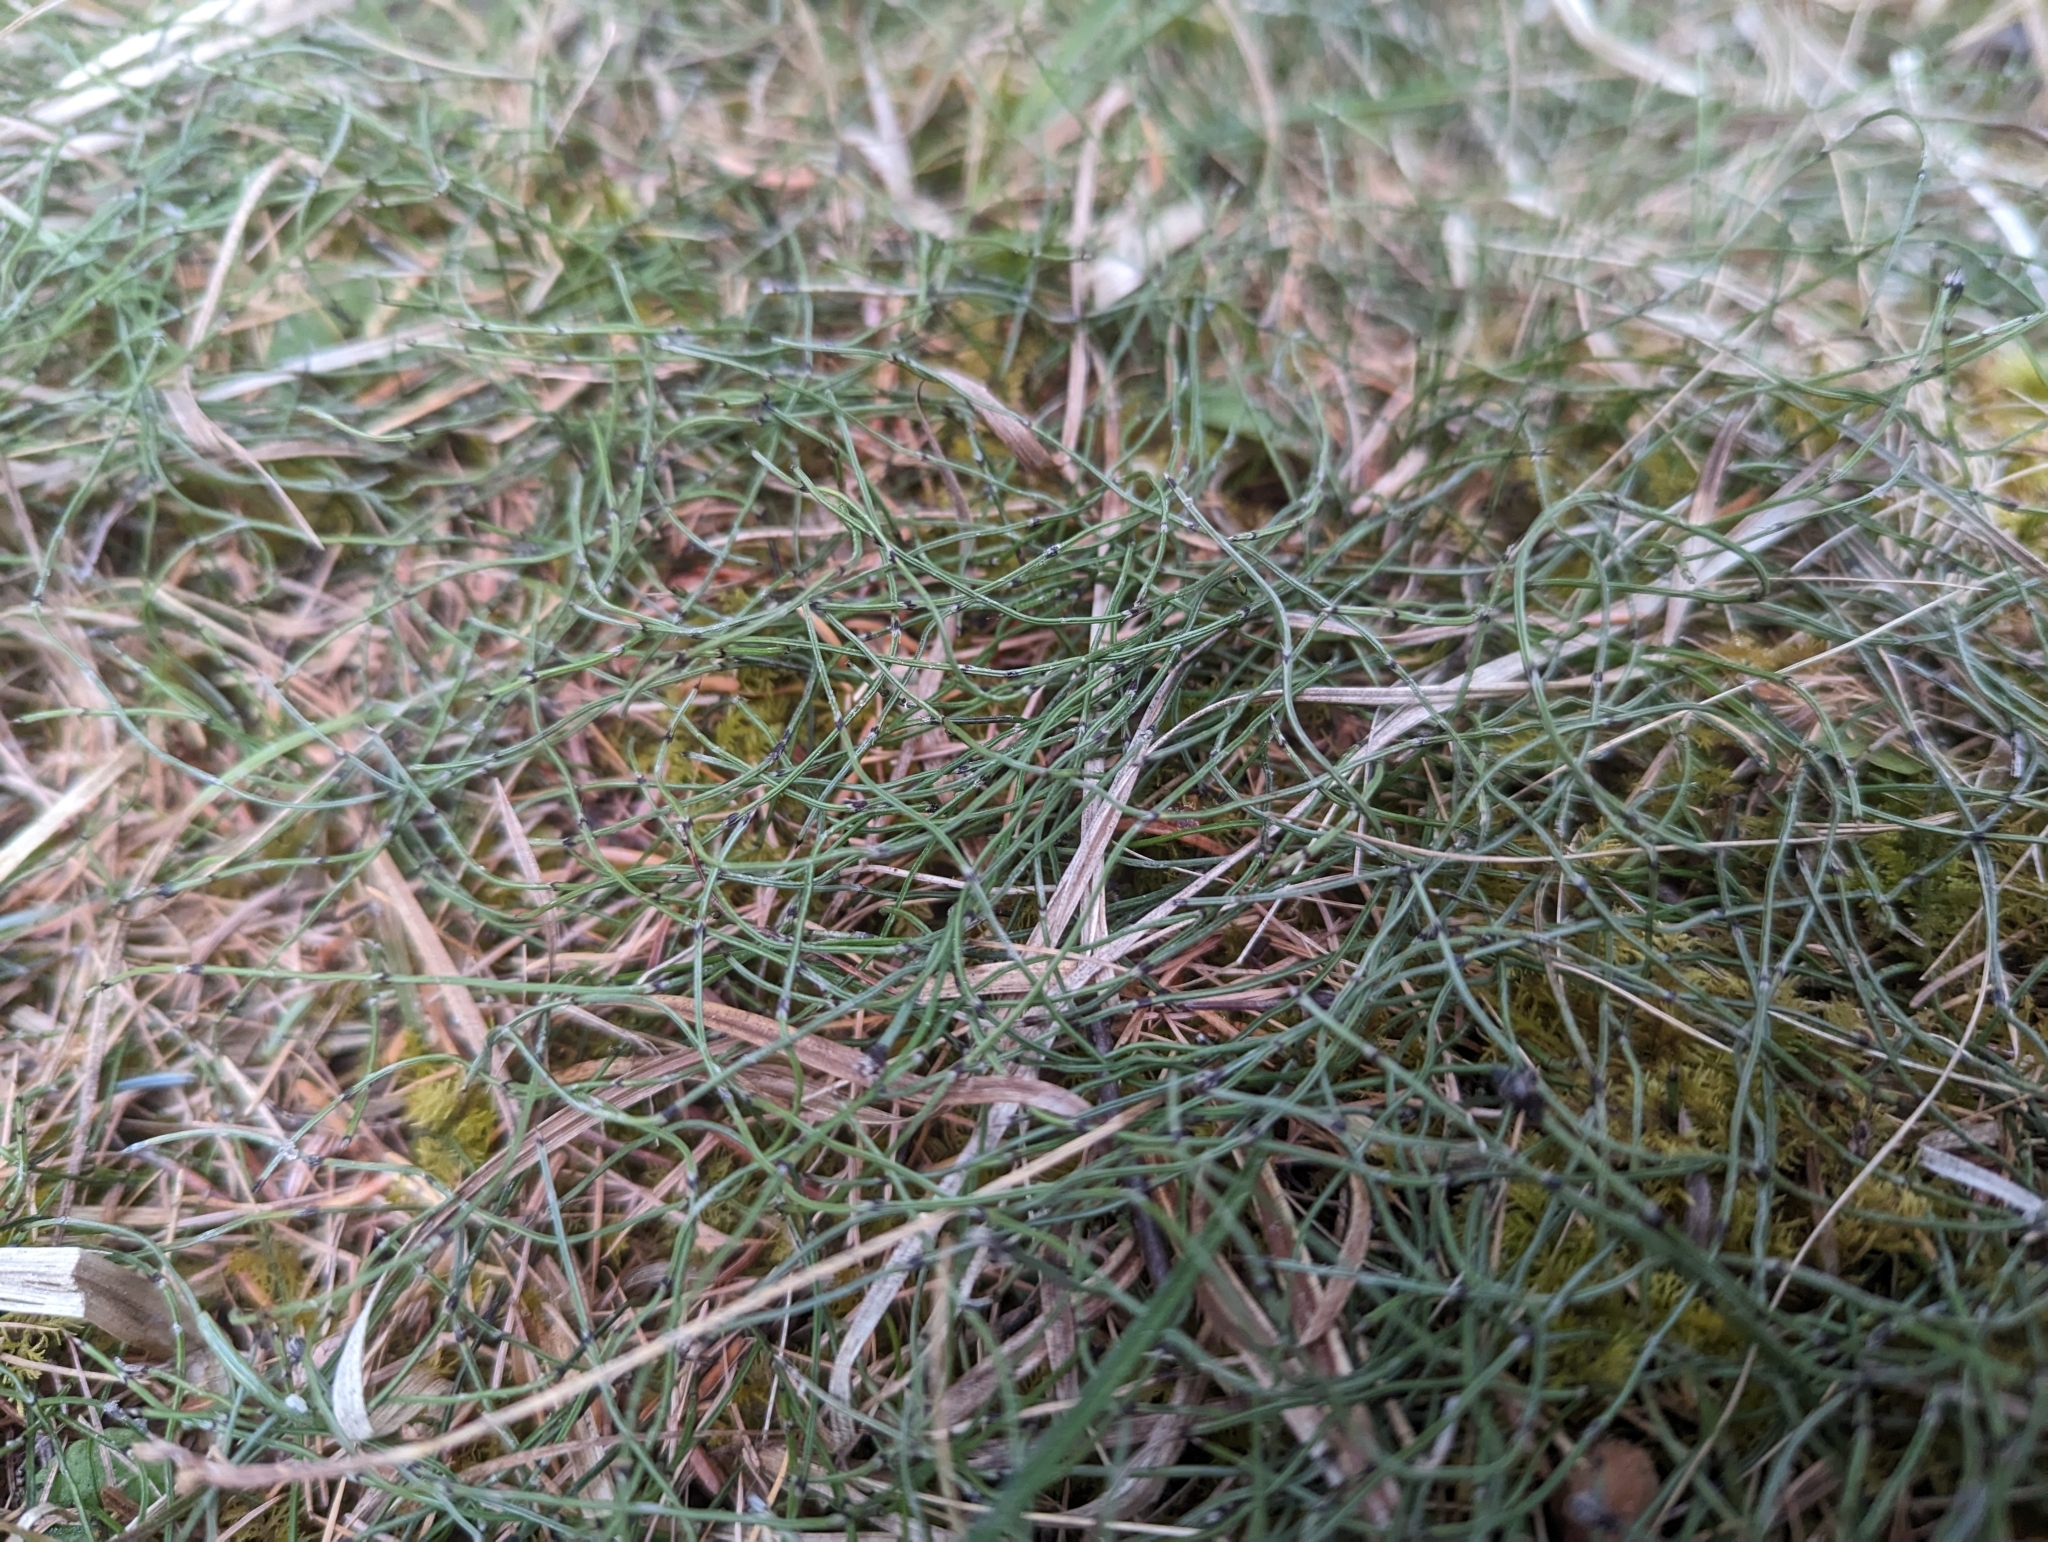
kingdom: Plantae
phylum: Tracheophyta
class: Polypodiopsida
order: Equisetales
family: Equisetaceae
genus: Equisetum
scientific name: Equisetum scirpoides
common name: Delicate horsetail
